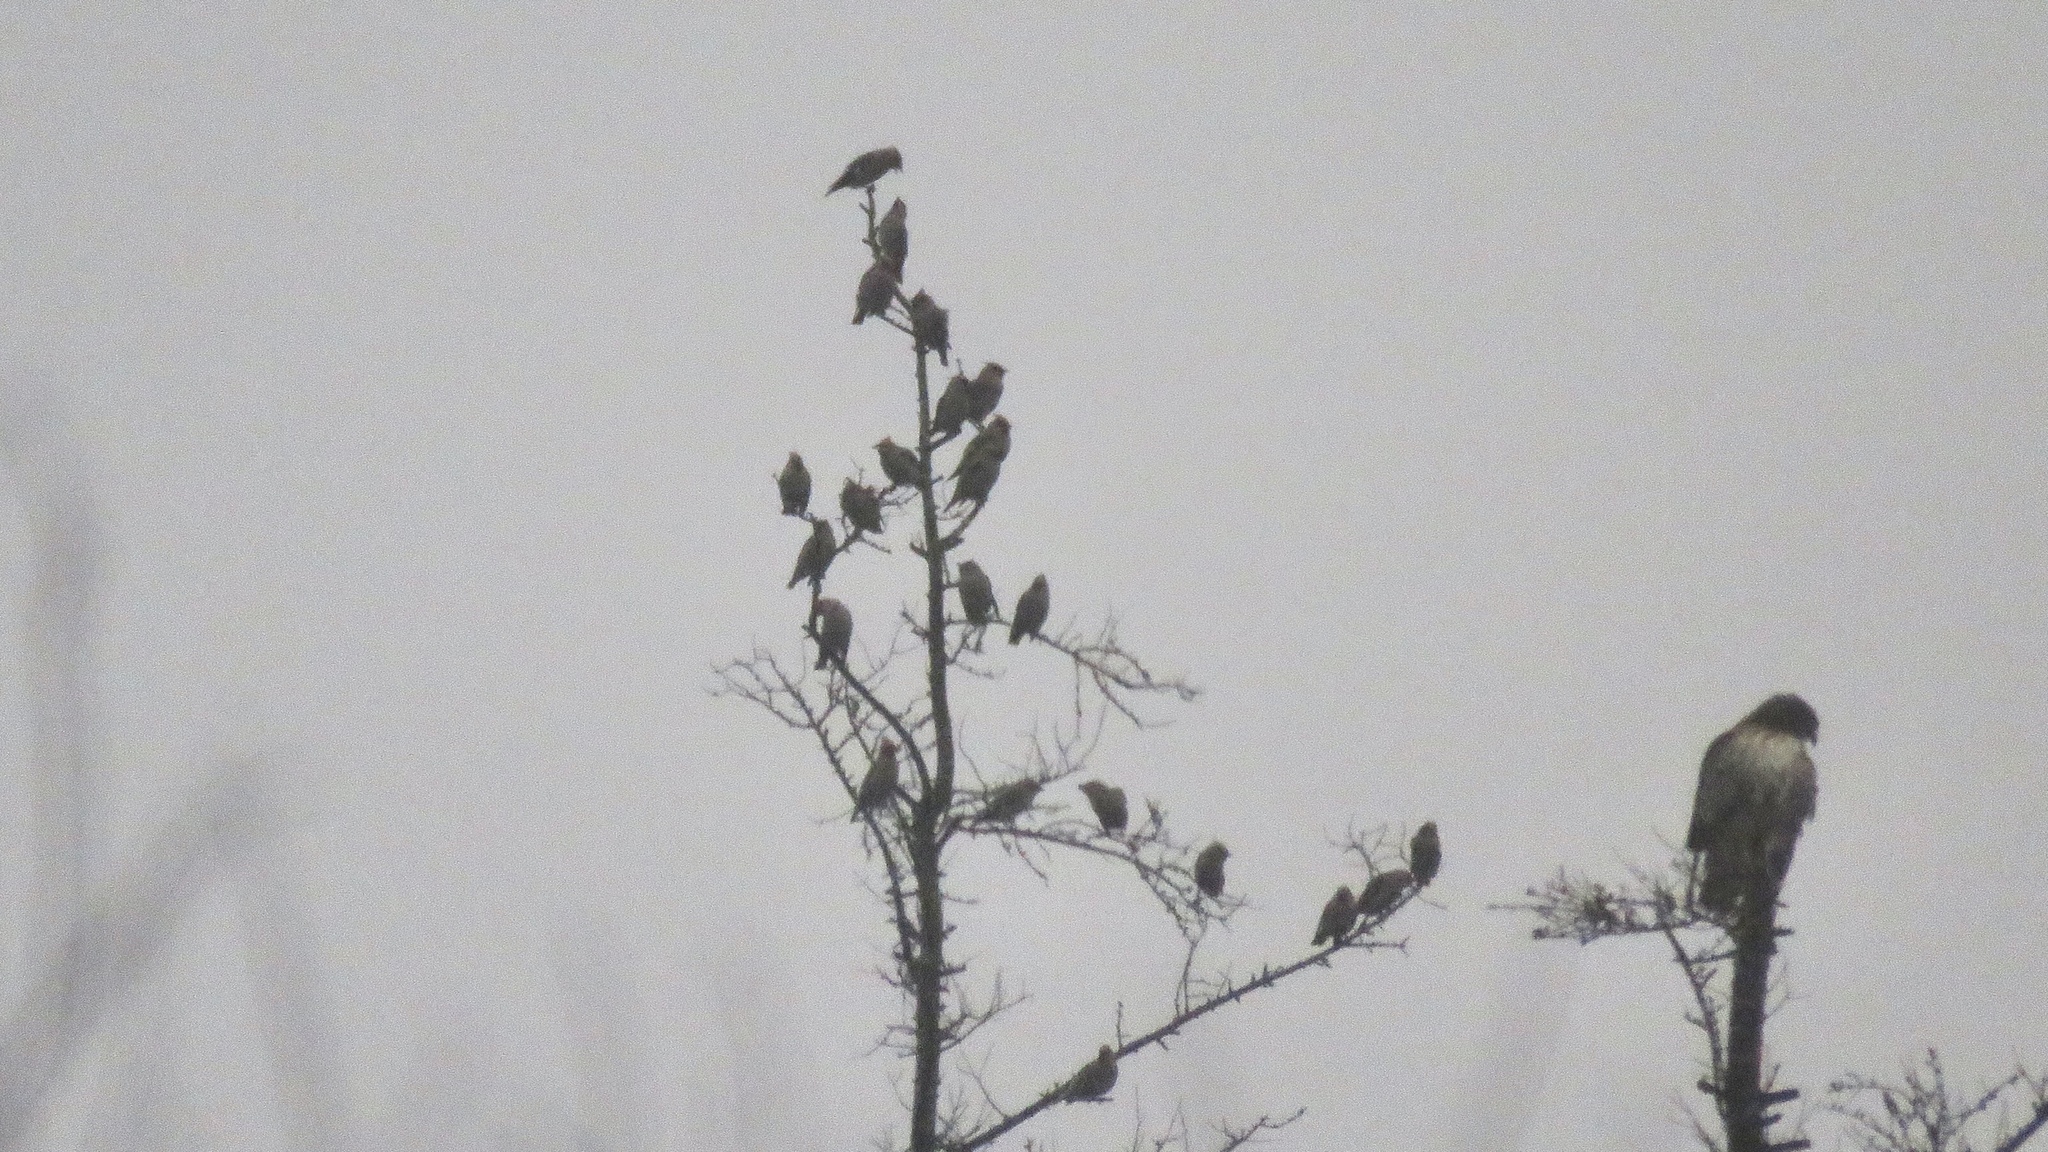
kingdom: Animalia
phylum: Chordata
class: Aves
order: Passeriformes
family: Bombycillidae
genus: Bombycilla
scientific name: Bombycilla garrulus
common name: Bohemian waxwing
